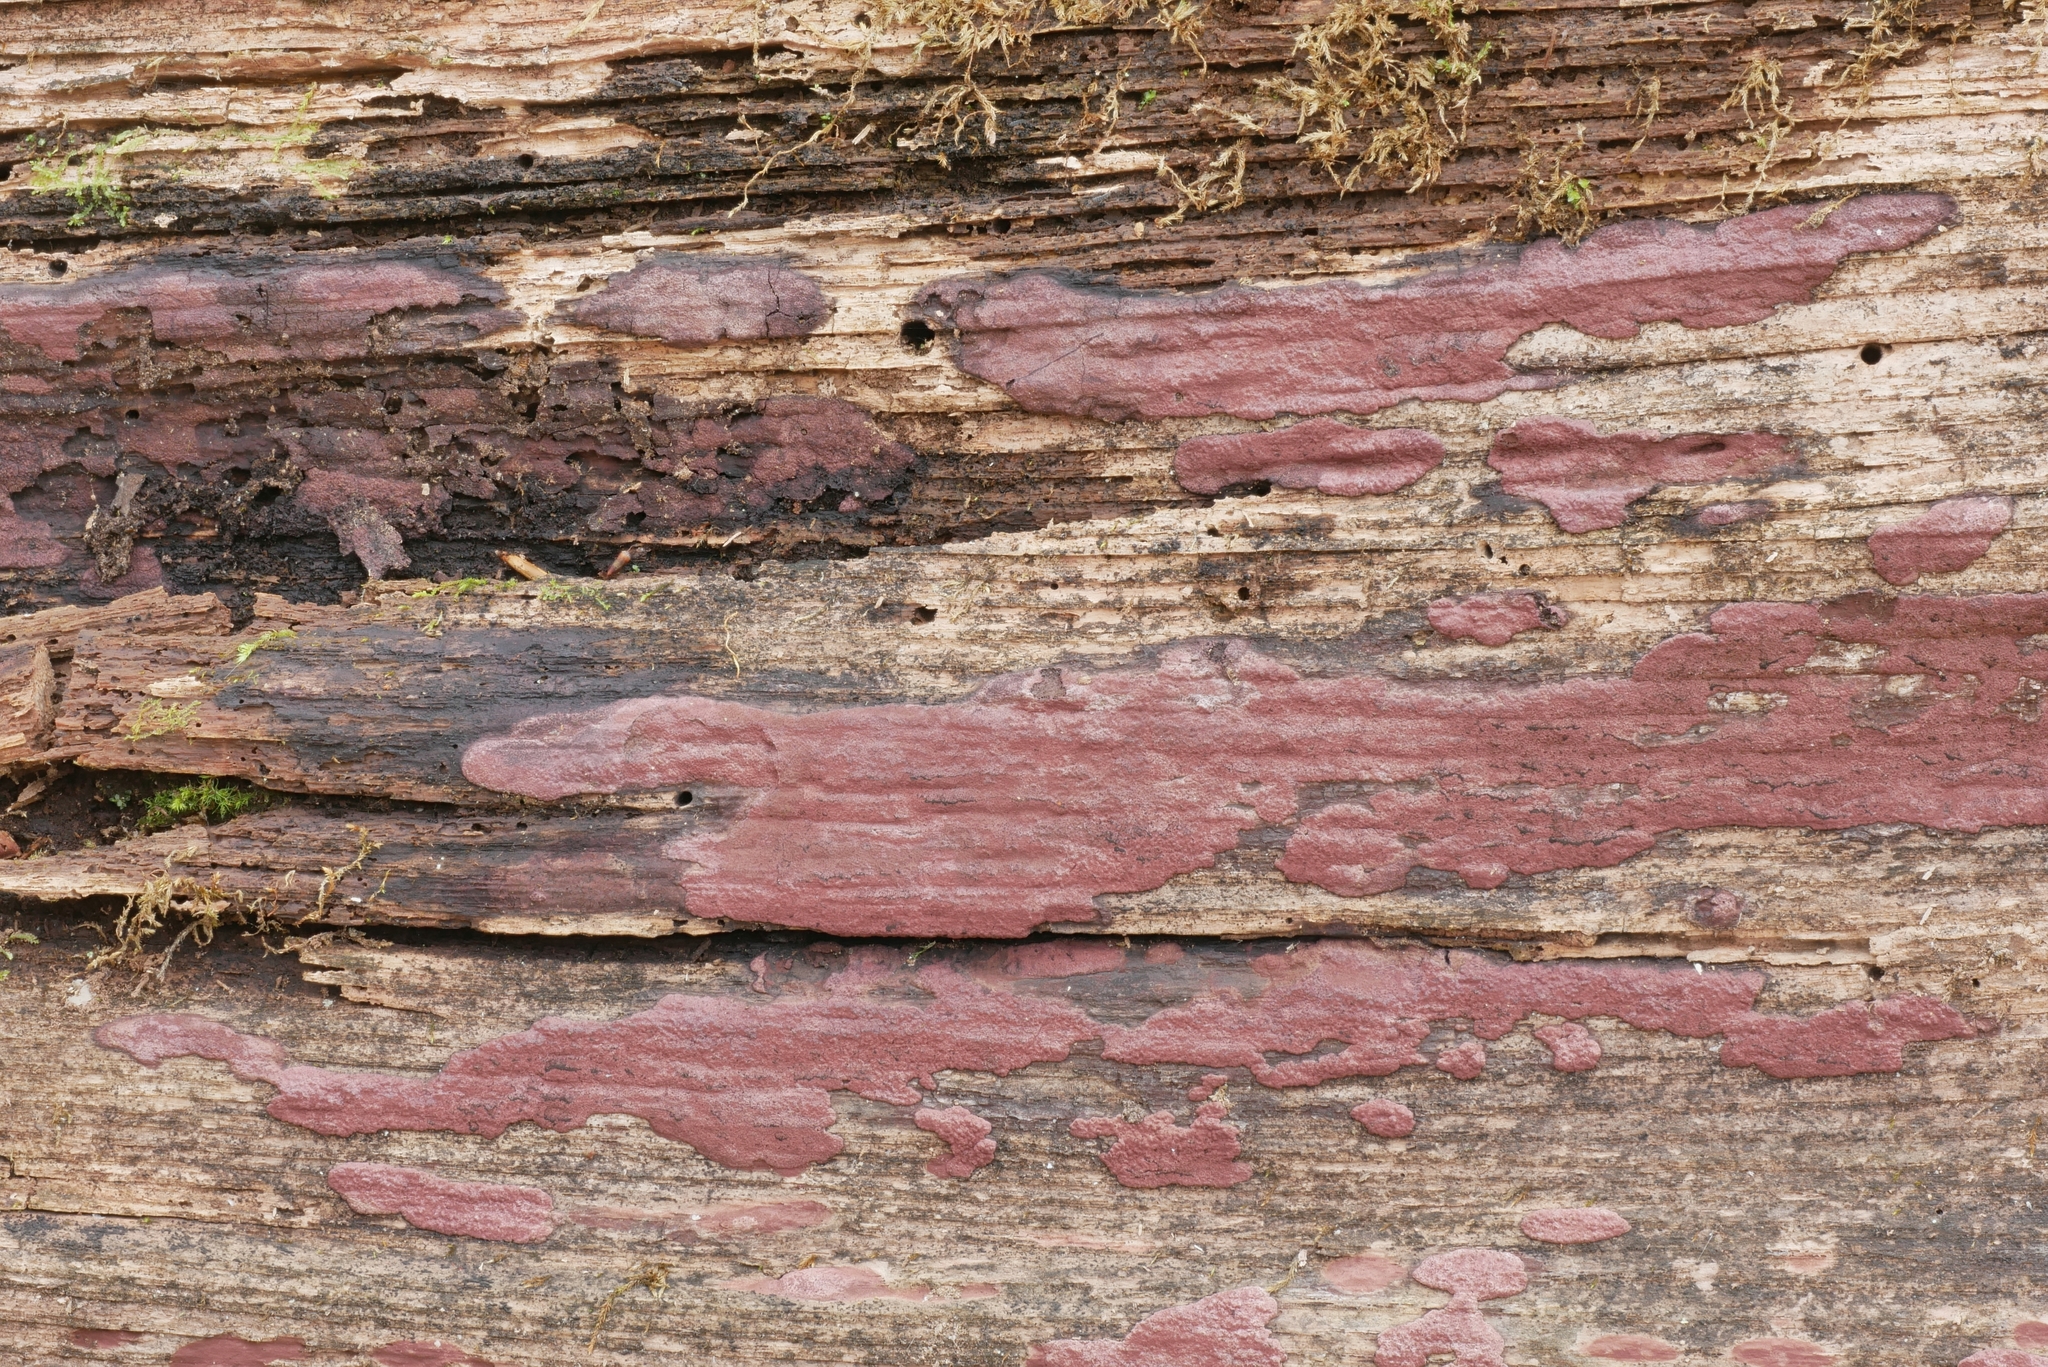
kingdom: Fungi
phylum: Ascomycota
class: Sordariomycetes
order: Xylariales
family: Hypoxylaceae
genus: Hypoxylon
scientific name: Hypoxylon fuscopurpureum
